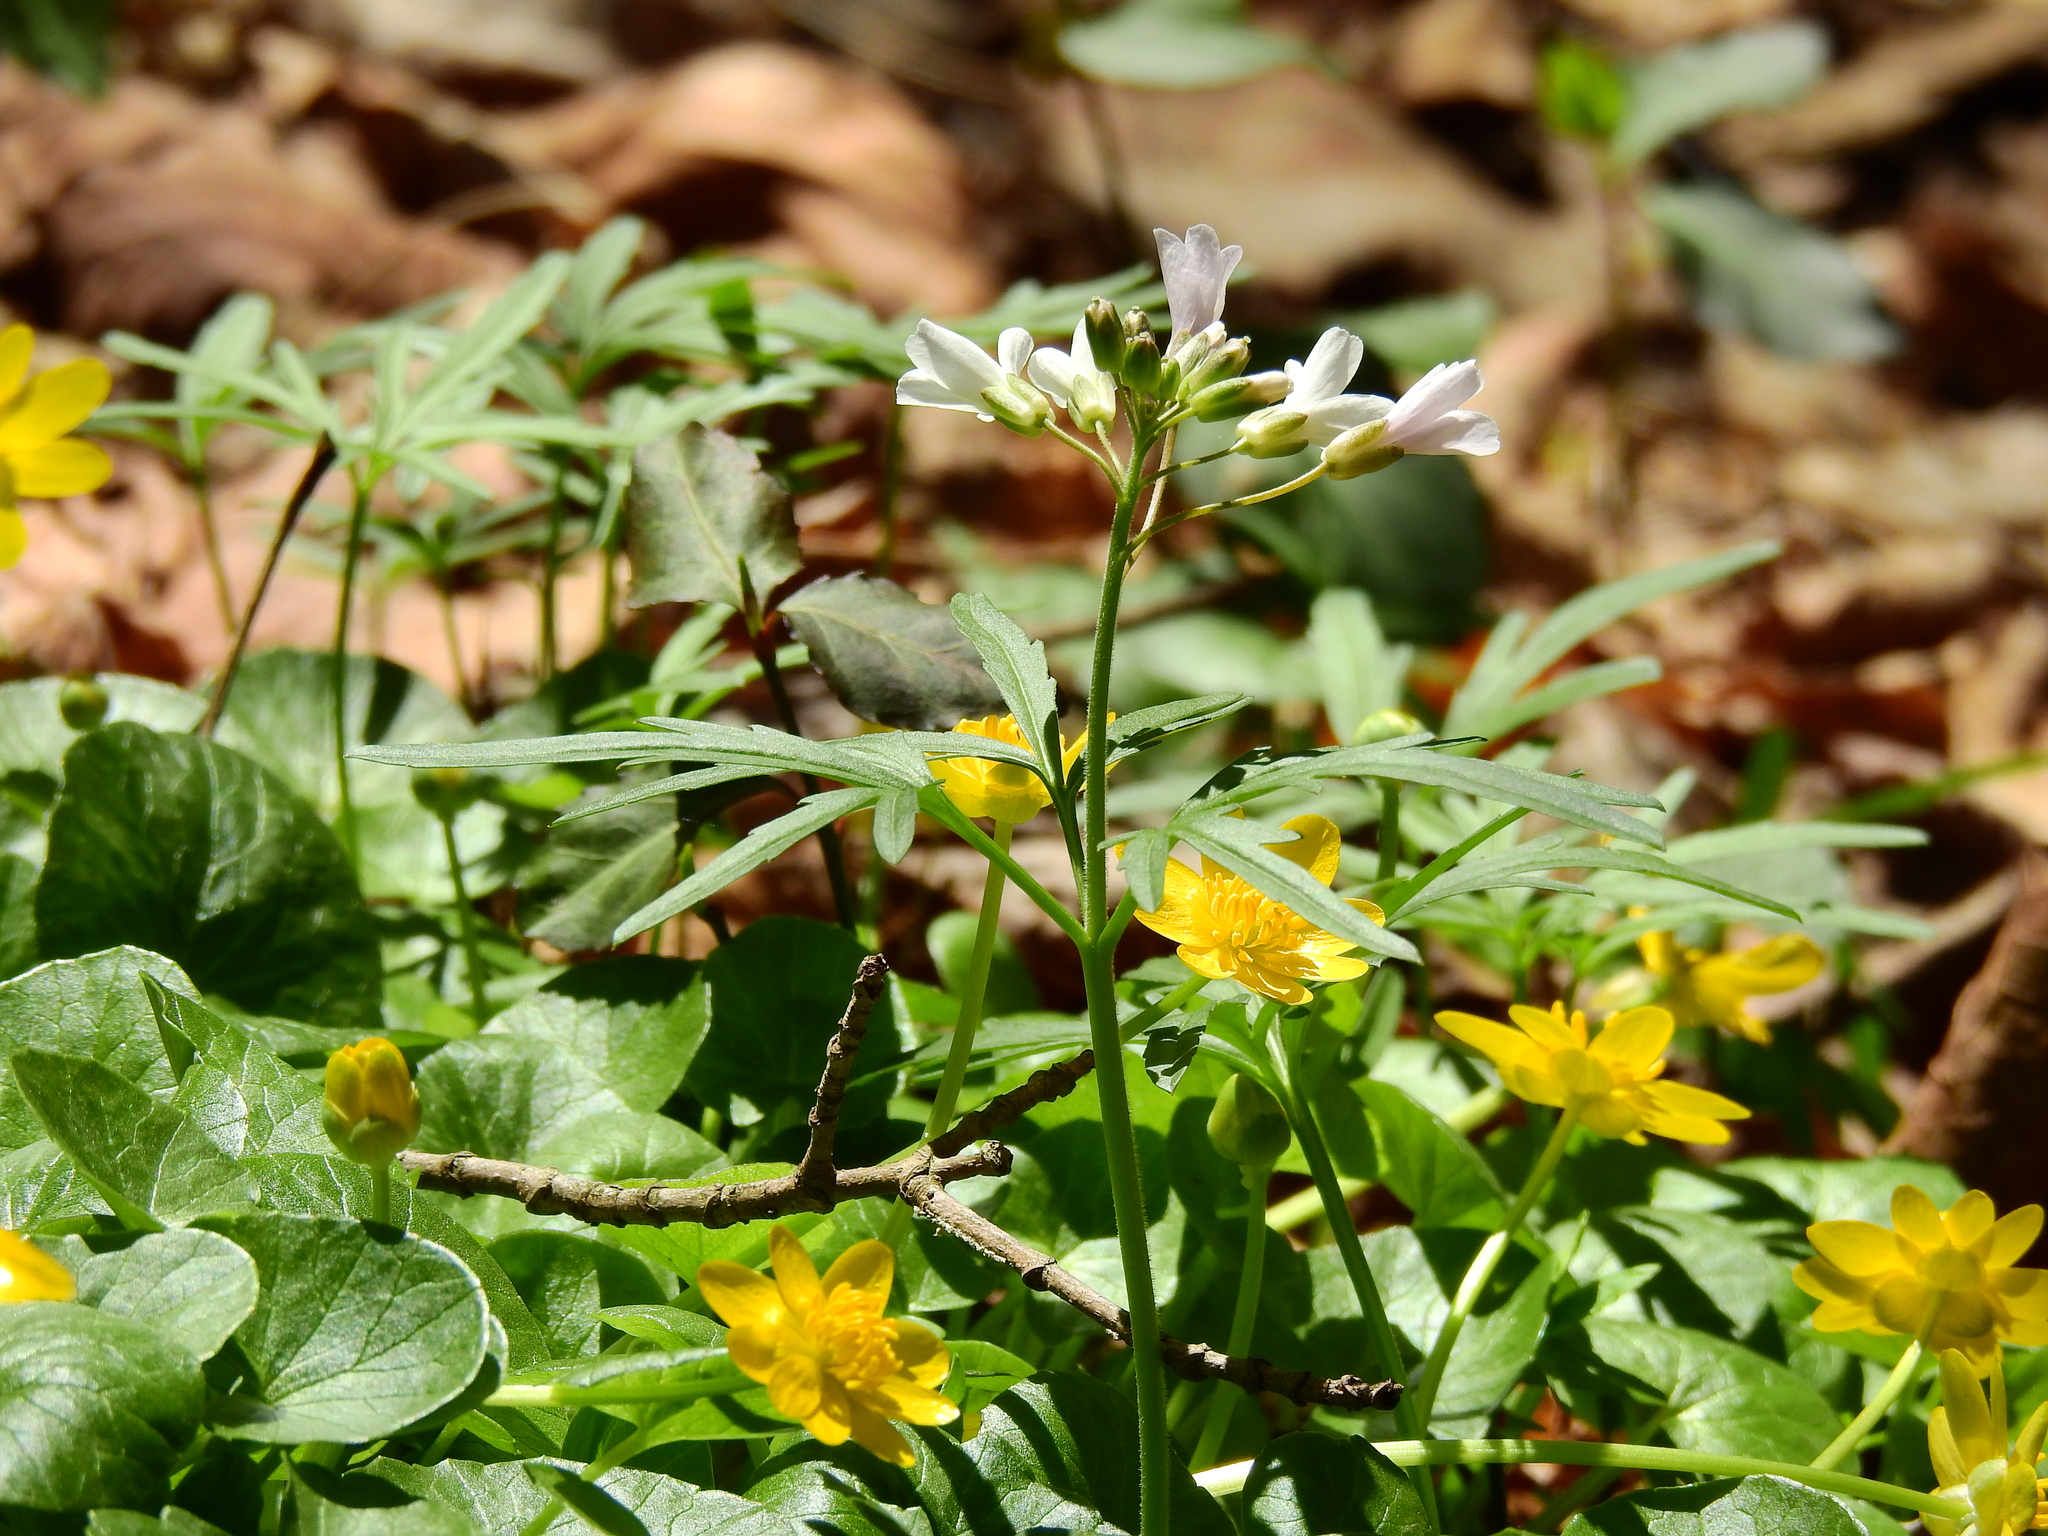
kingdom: Plantae
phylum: Tracheophyta
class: Magnoliopsida
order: Brassicales
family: Brassicaceae
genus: Cardamine
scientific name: Cardamine concatenata
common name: Cut-leaf toothcup
